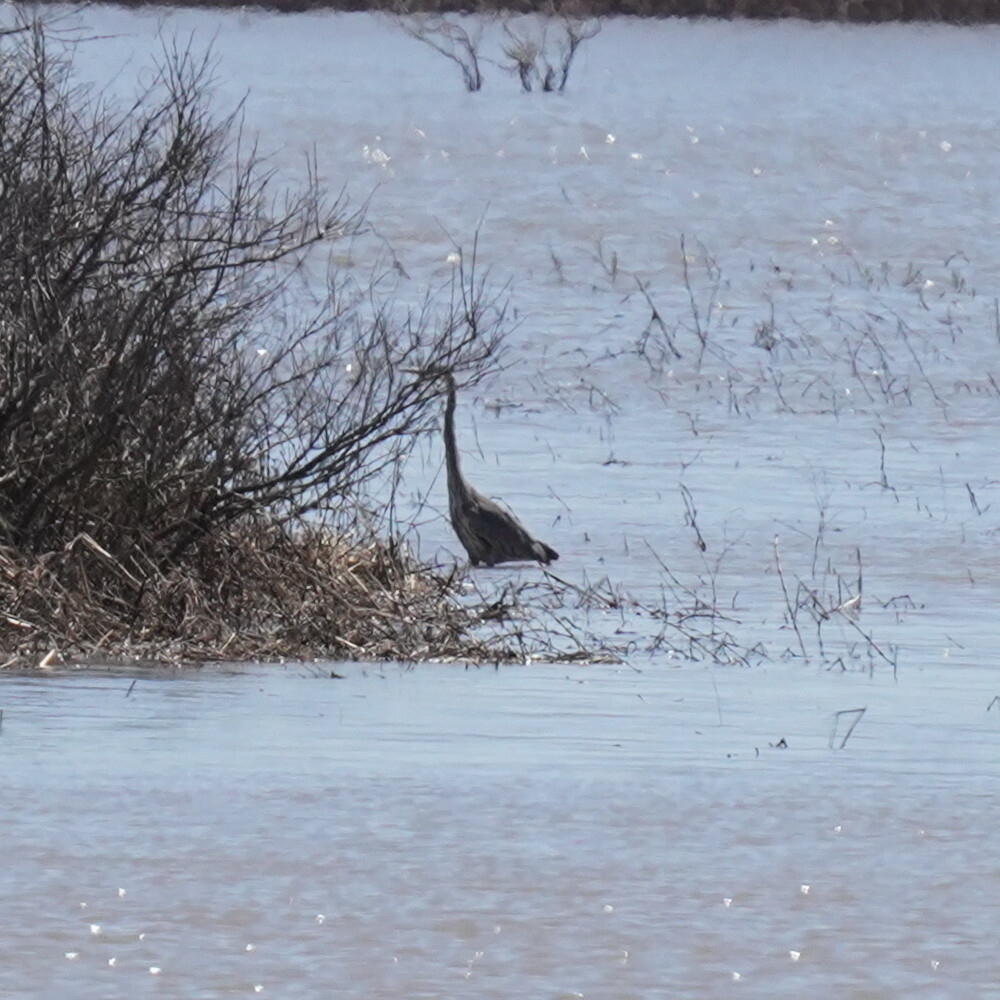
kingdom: Animalia
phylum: Chordata
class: Aves
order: Pelecaniformes
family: Ardeidae
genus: Ardea
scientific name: Ardea herodias
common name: Great blue heron
